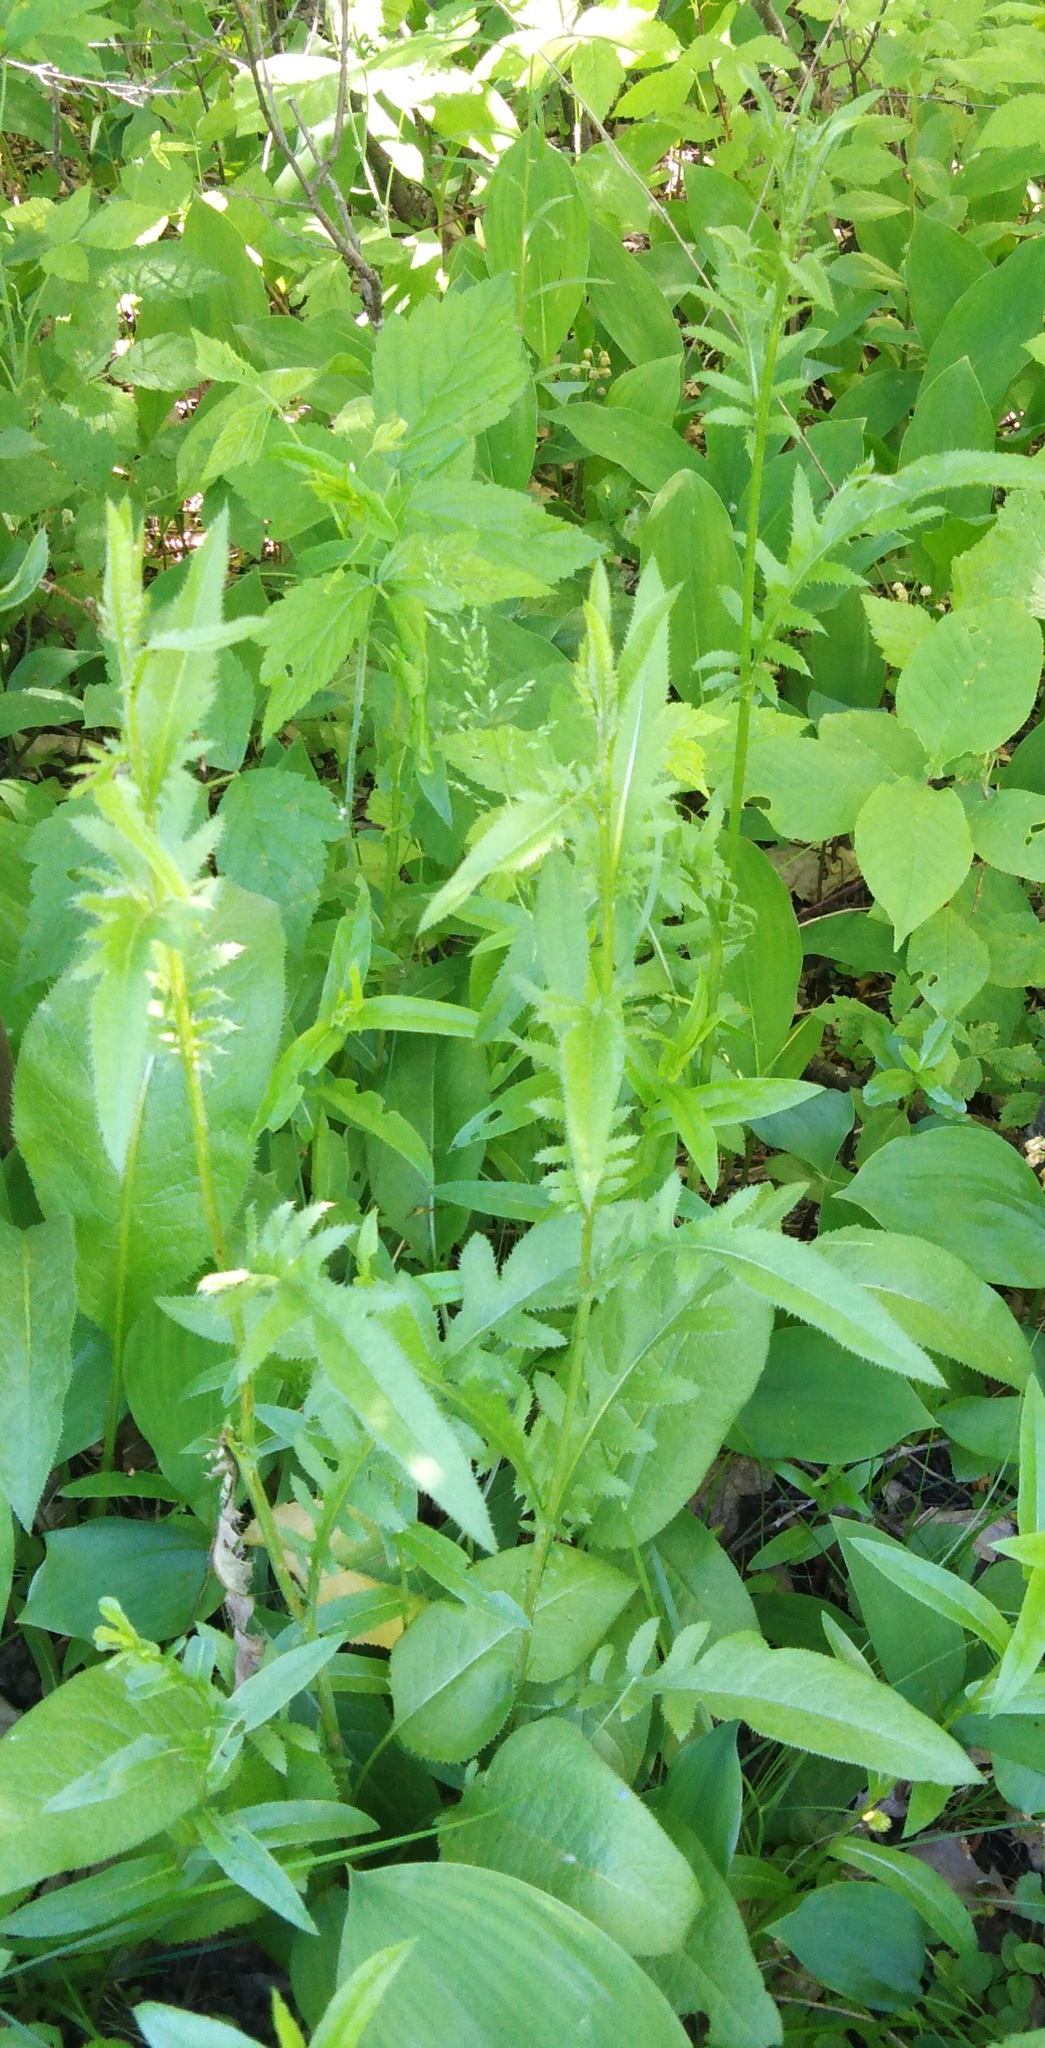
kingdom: Plantae
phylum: Tracheophyta
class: Magnoliopsida
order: Asterales
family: Asteraceae
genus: Serratula
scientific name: Serratula tinctoria
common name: Saw-wort
